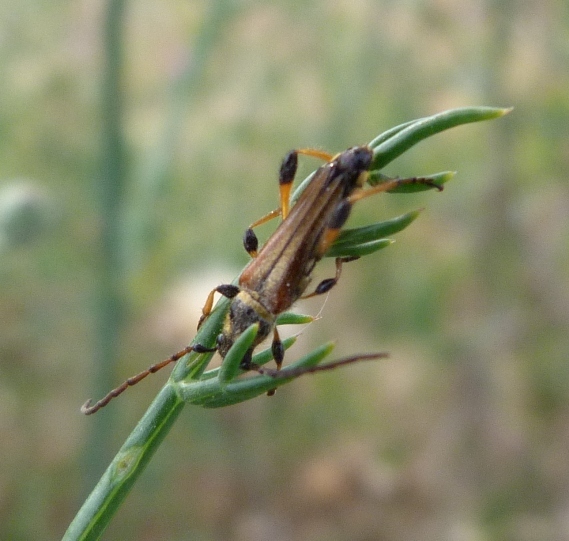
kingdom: Animalia
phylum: Arthropoda
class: Insecta
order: Coleoptera
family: Cerambycidae
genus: Stenopterus
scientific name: Stenopterus ater
